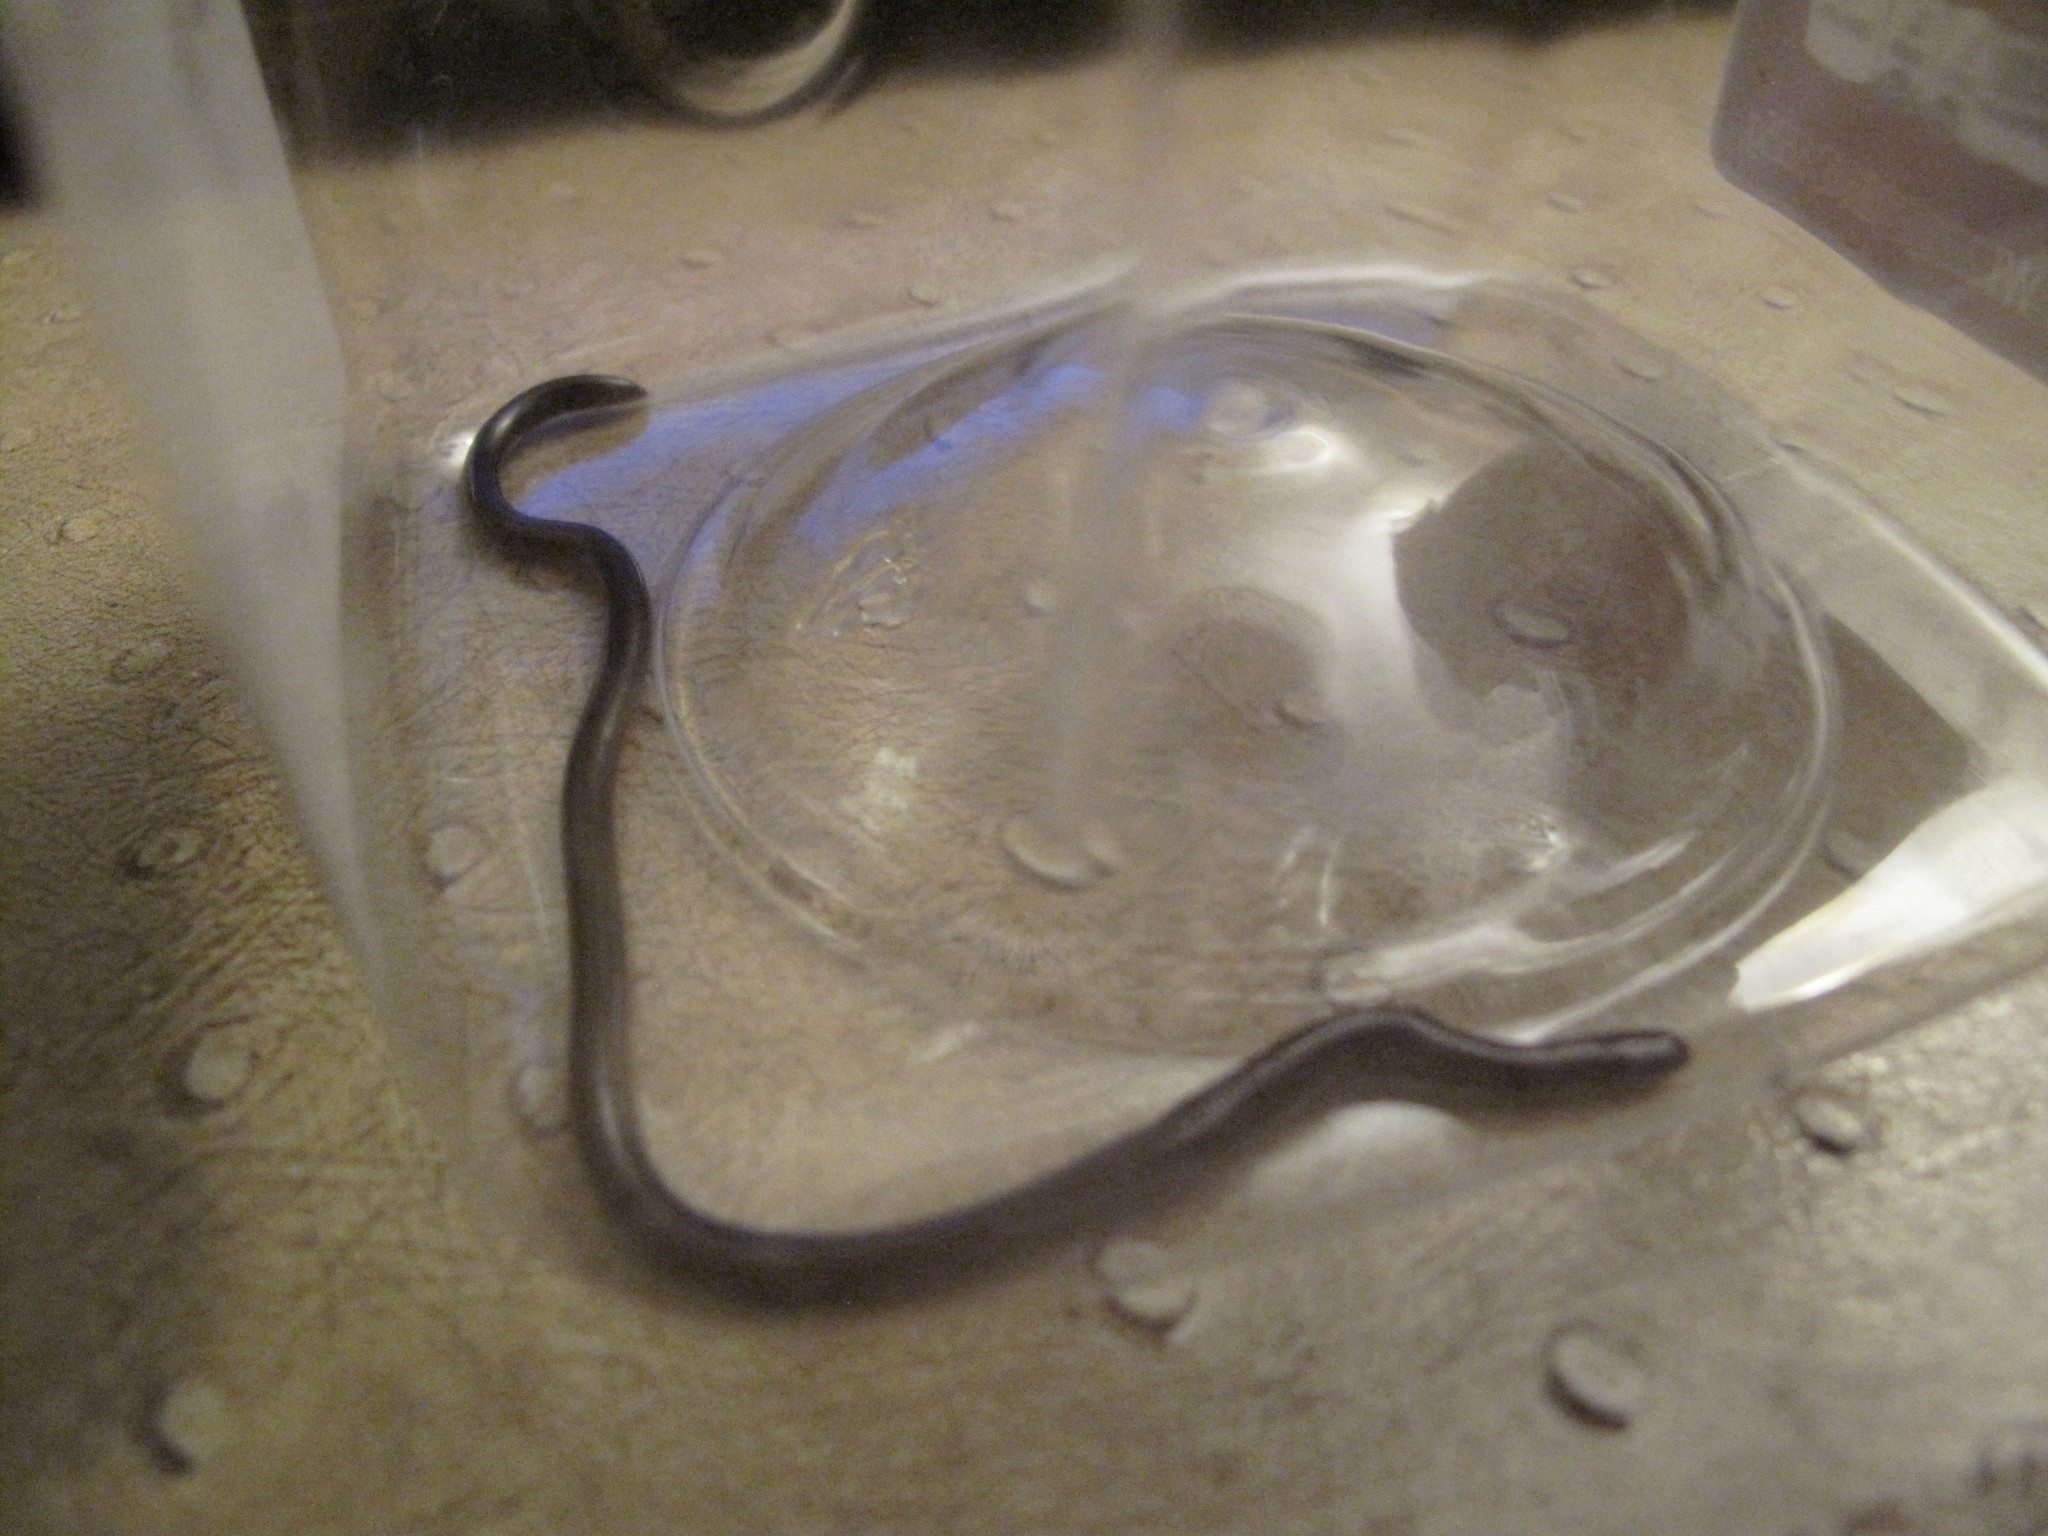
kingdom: Animalia
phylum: Chordata
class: Squamata
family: Typhlopidae
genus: Indotyphlops
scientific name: Indotyphlops braminus
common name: Brahminy blindsnake
